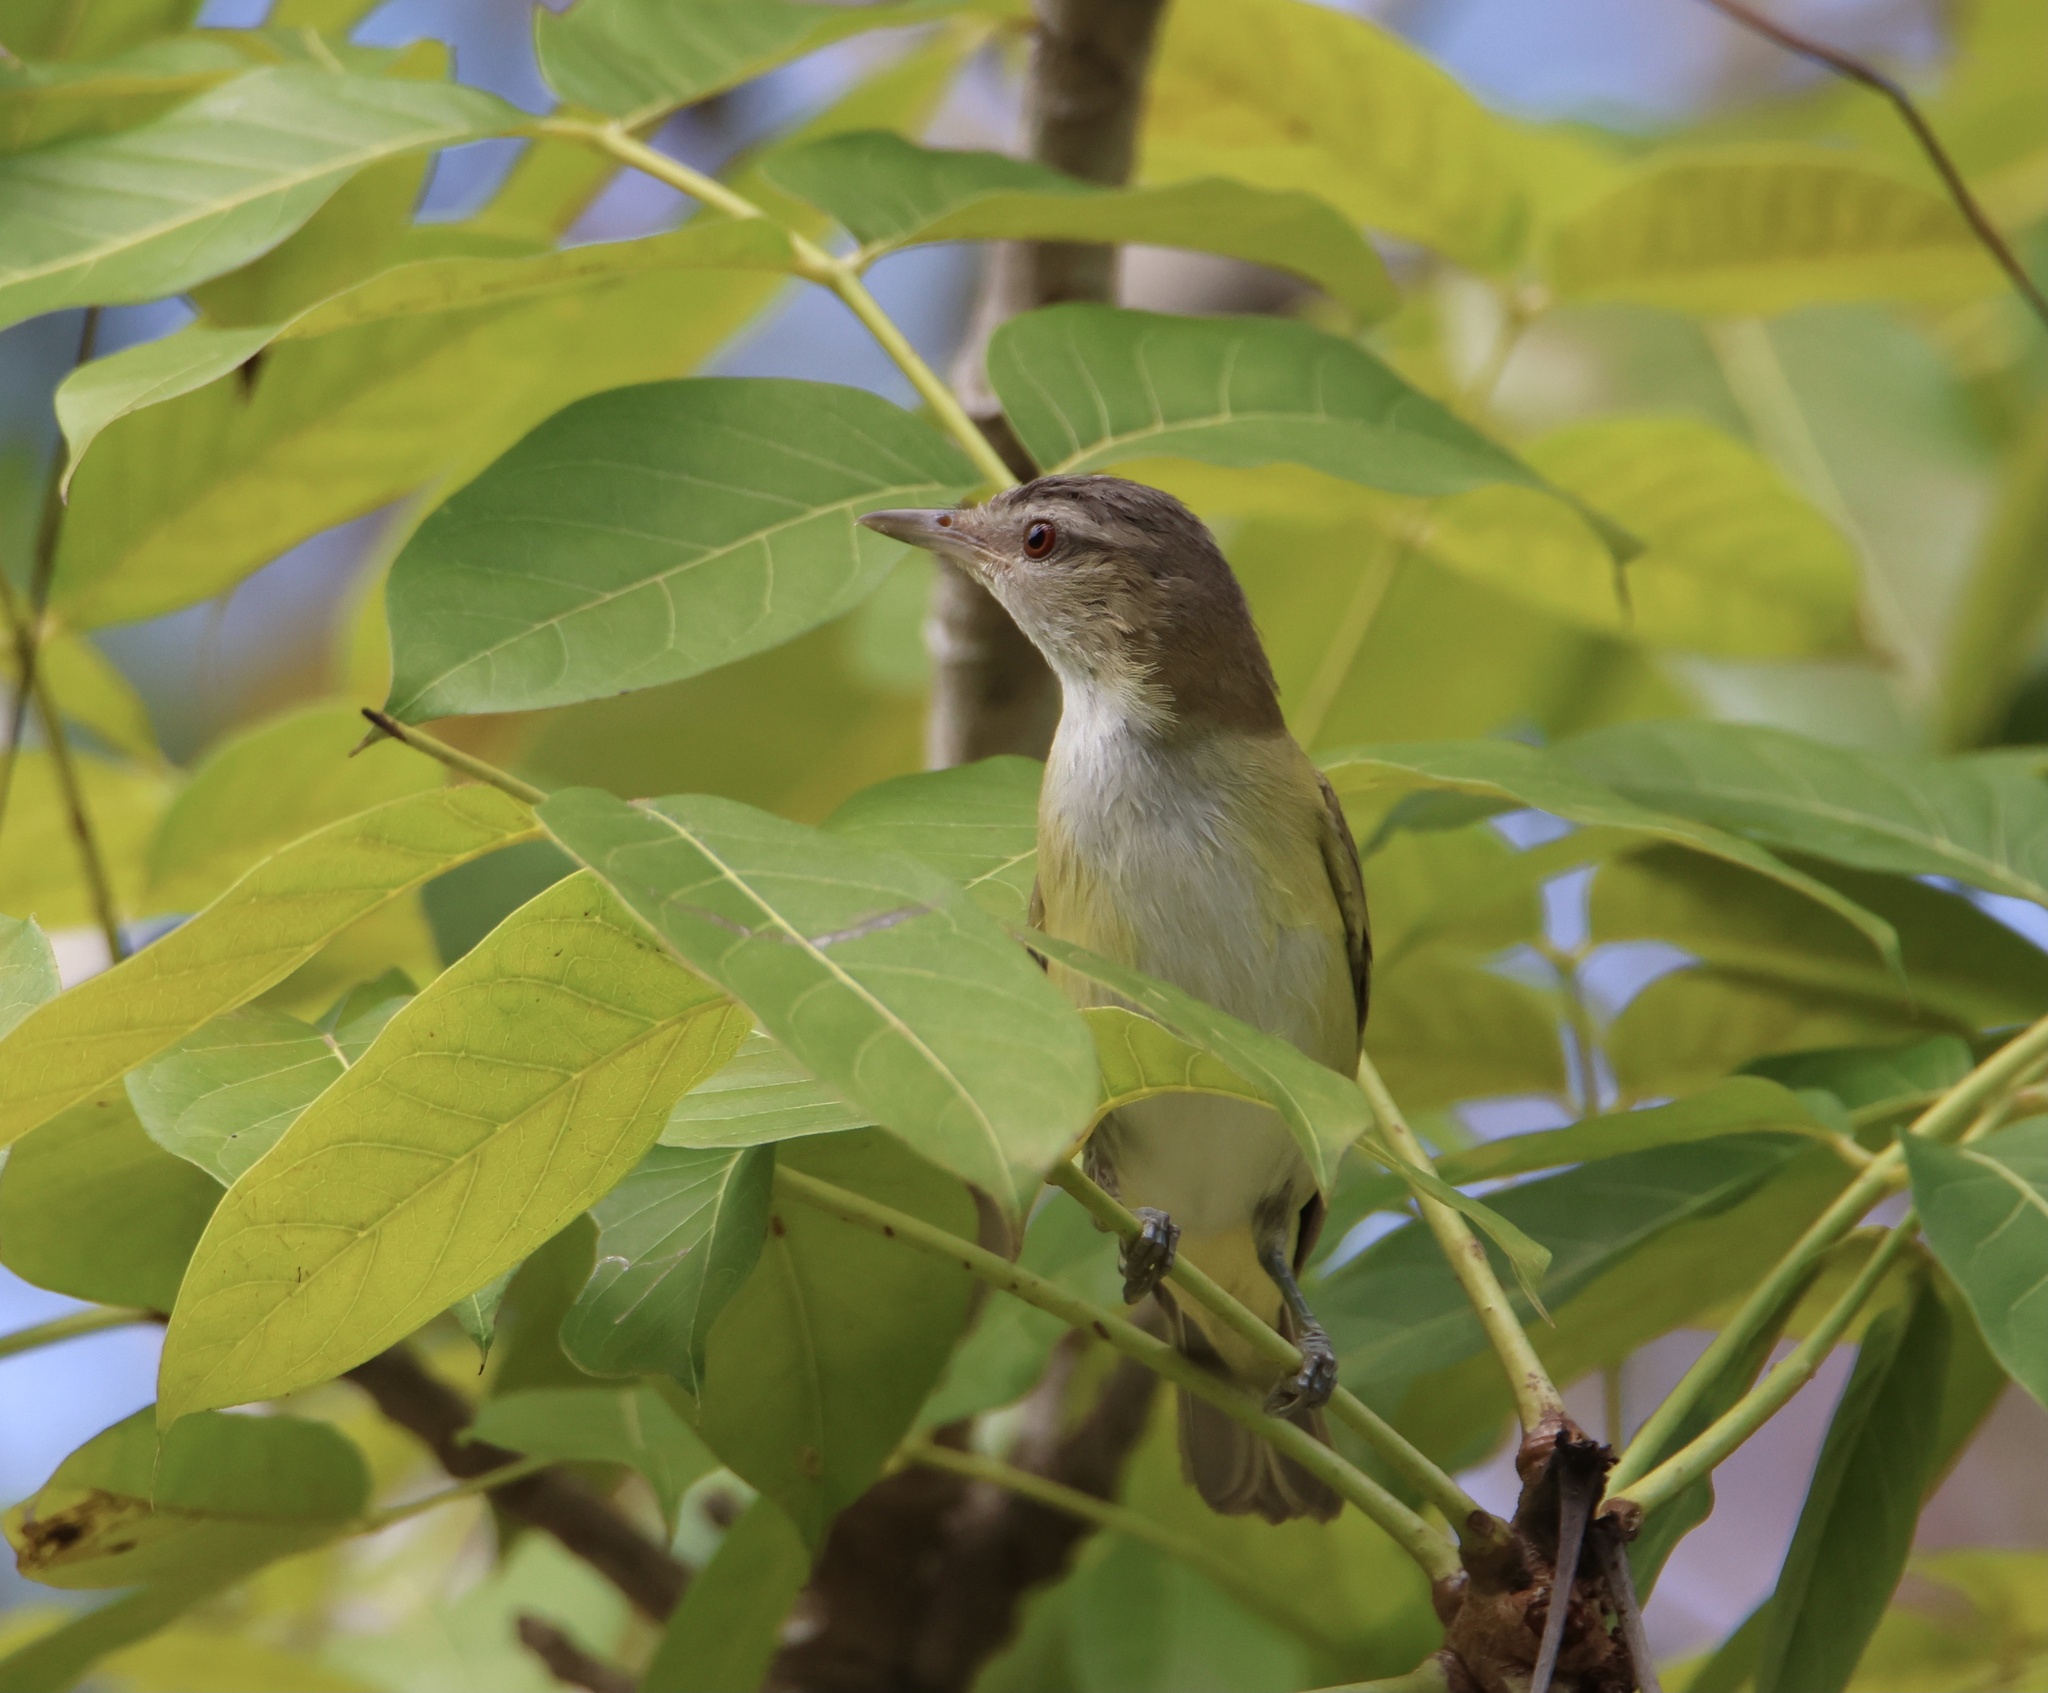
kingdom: Animalia
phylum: Chordata
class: Aves
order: Passeriformes
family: Vireonidae
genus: Vireo
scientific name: Vireo flavoviridis
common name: Yellow-green vireo
